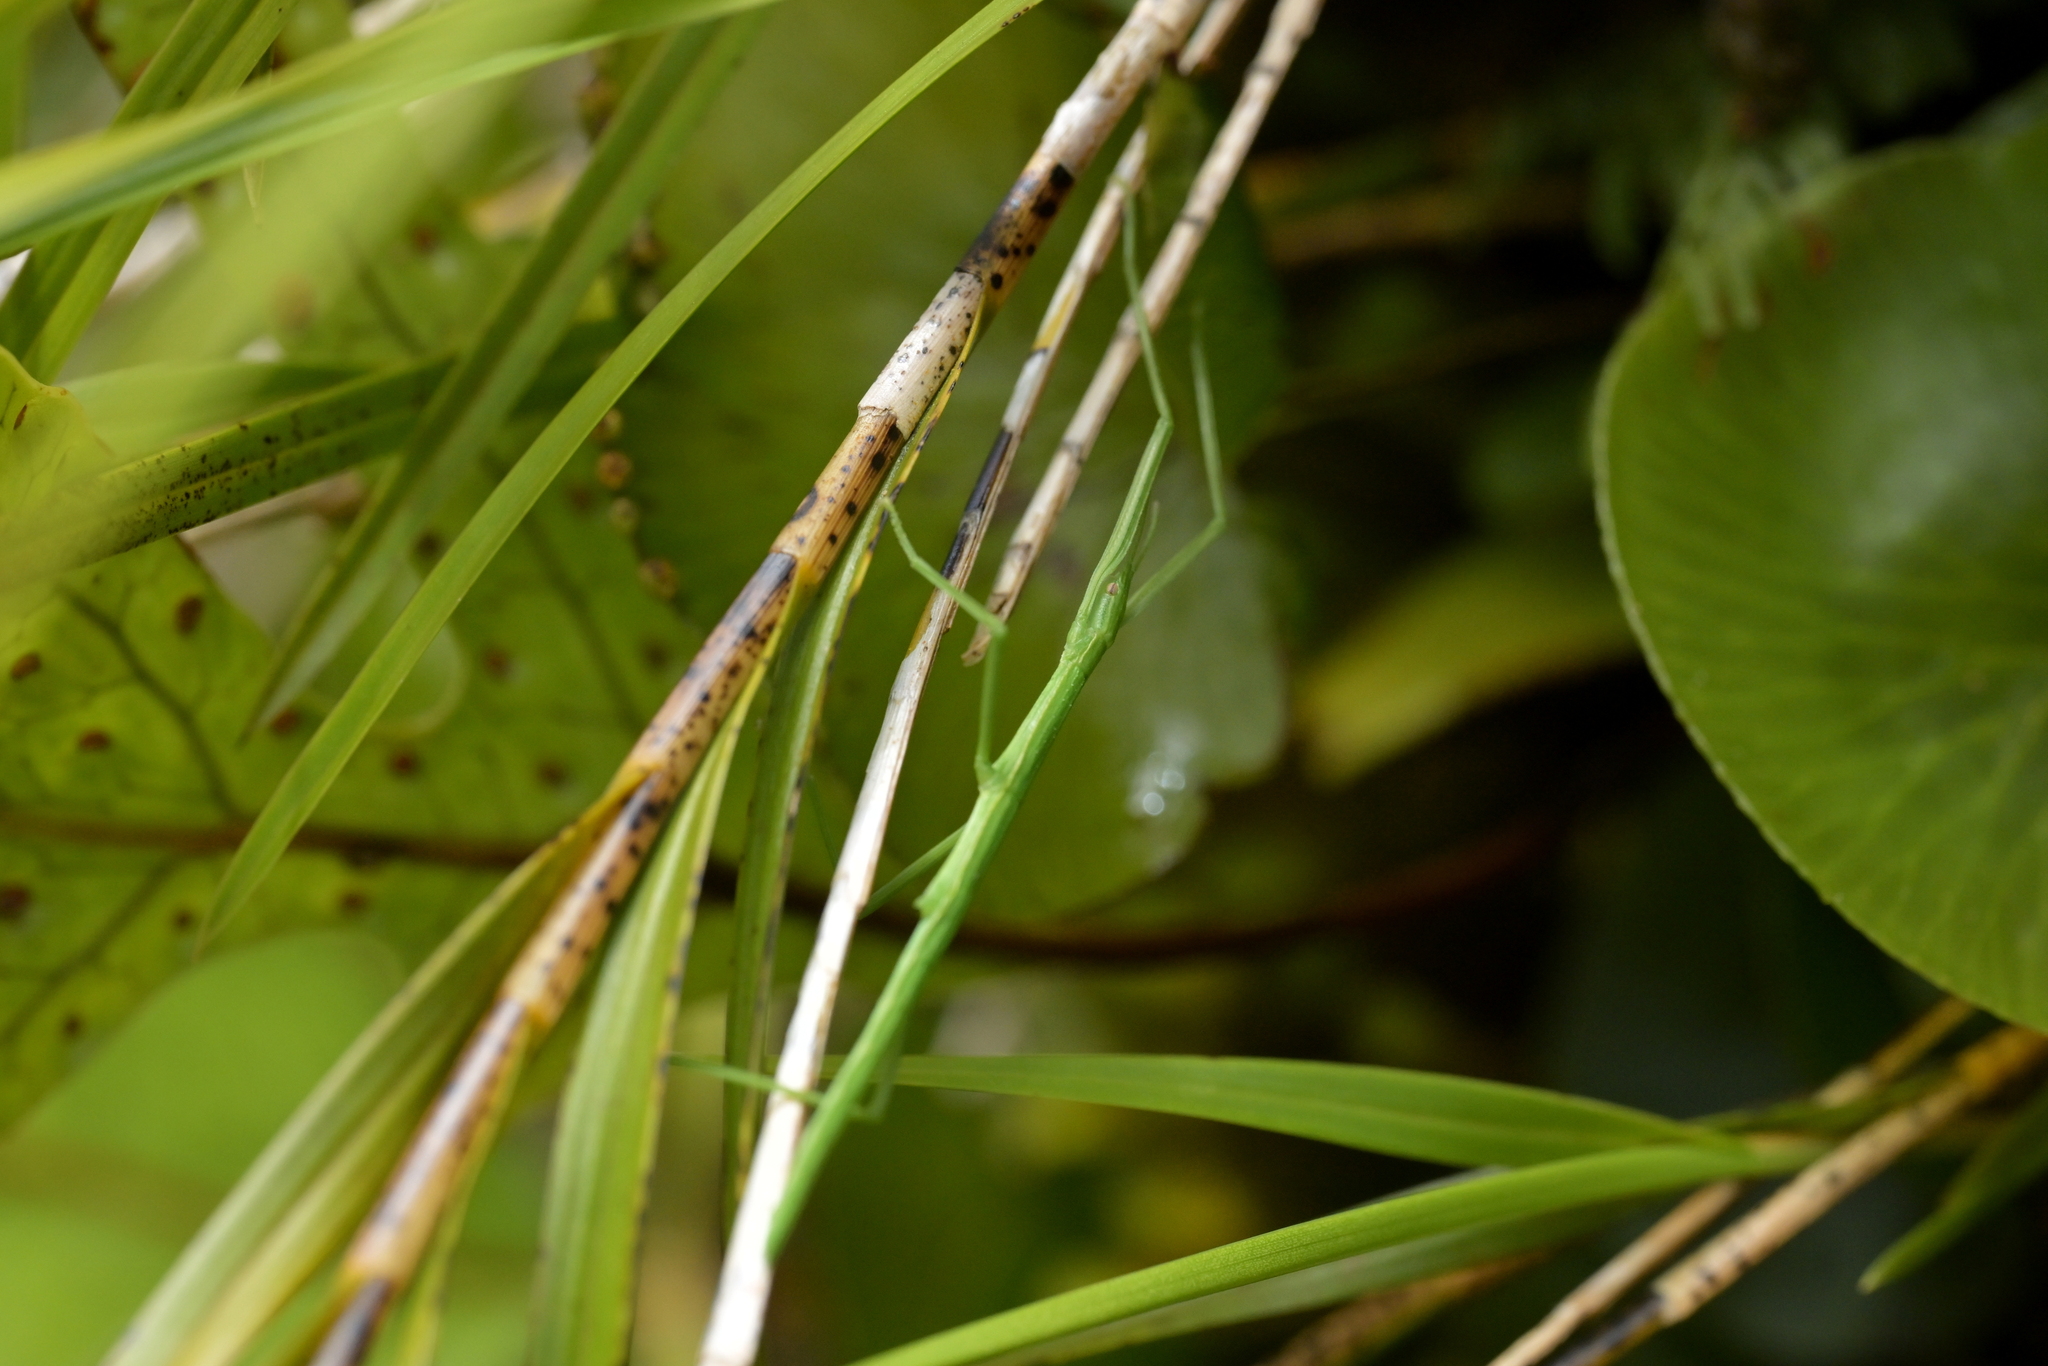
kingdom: Animalia
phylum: Arthropoda
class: Insecta
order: Phasmida
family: Phasmatidae
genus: Clitarchus
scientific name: Clitarchus hookeri
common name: Smooth stick insect
